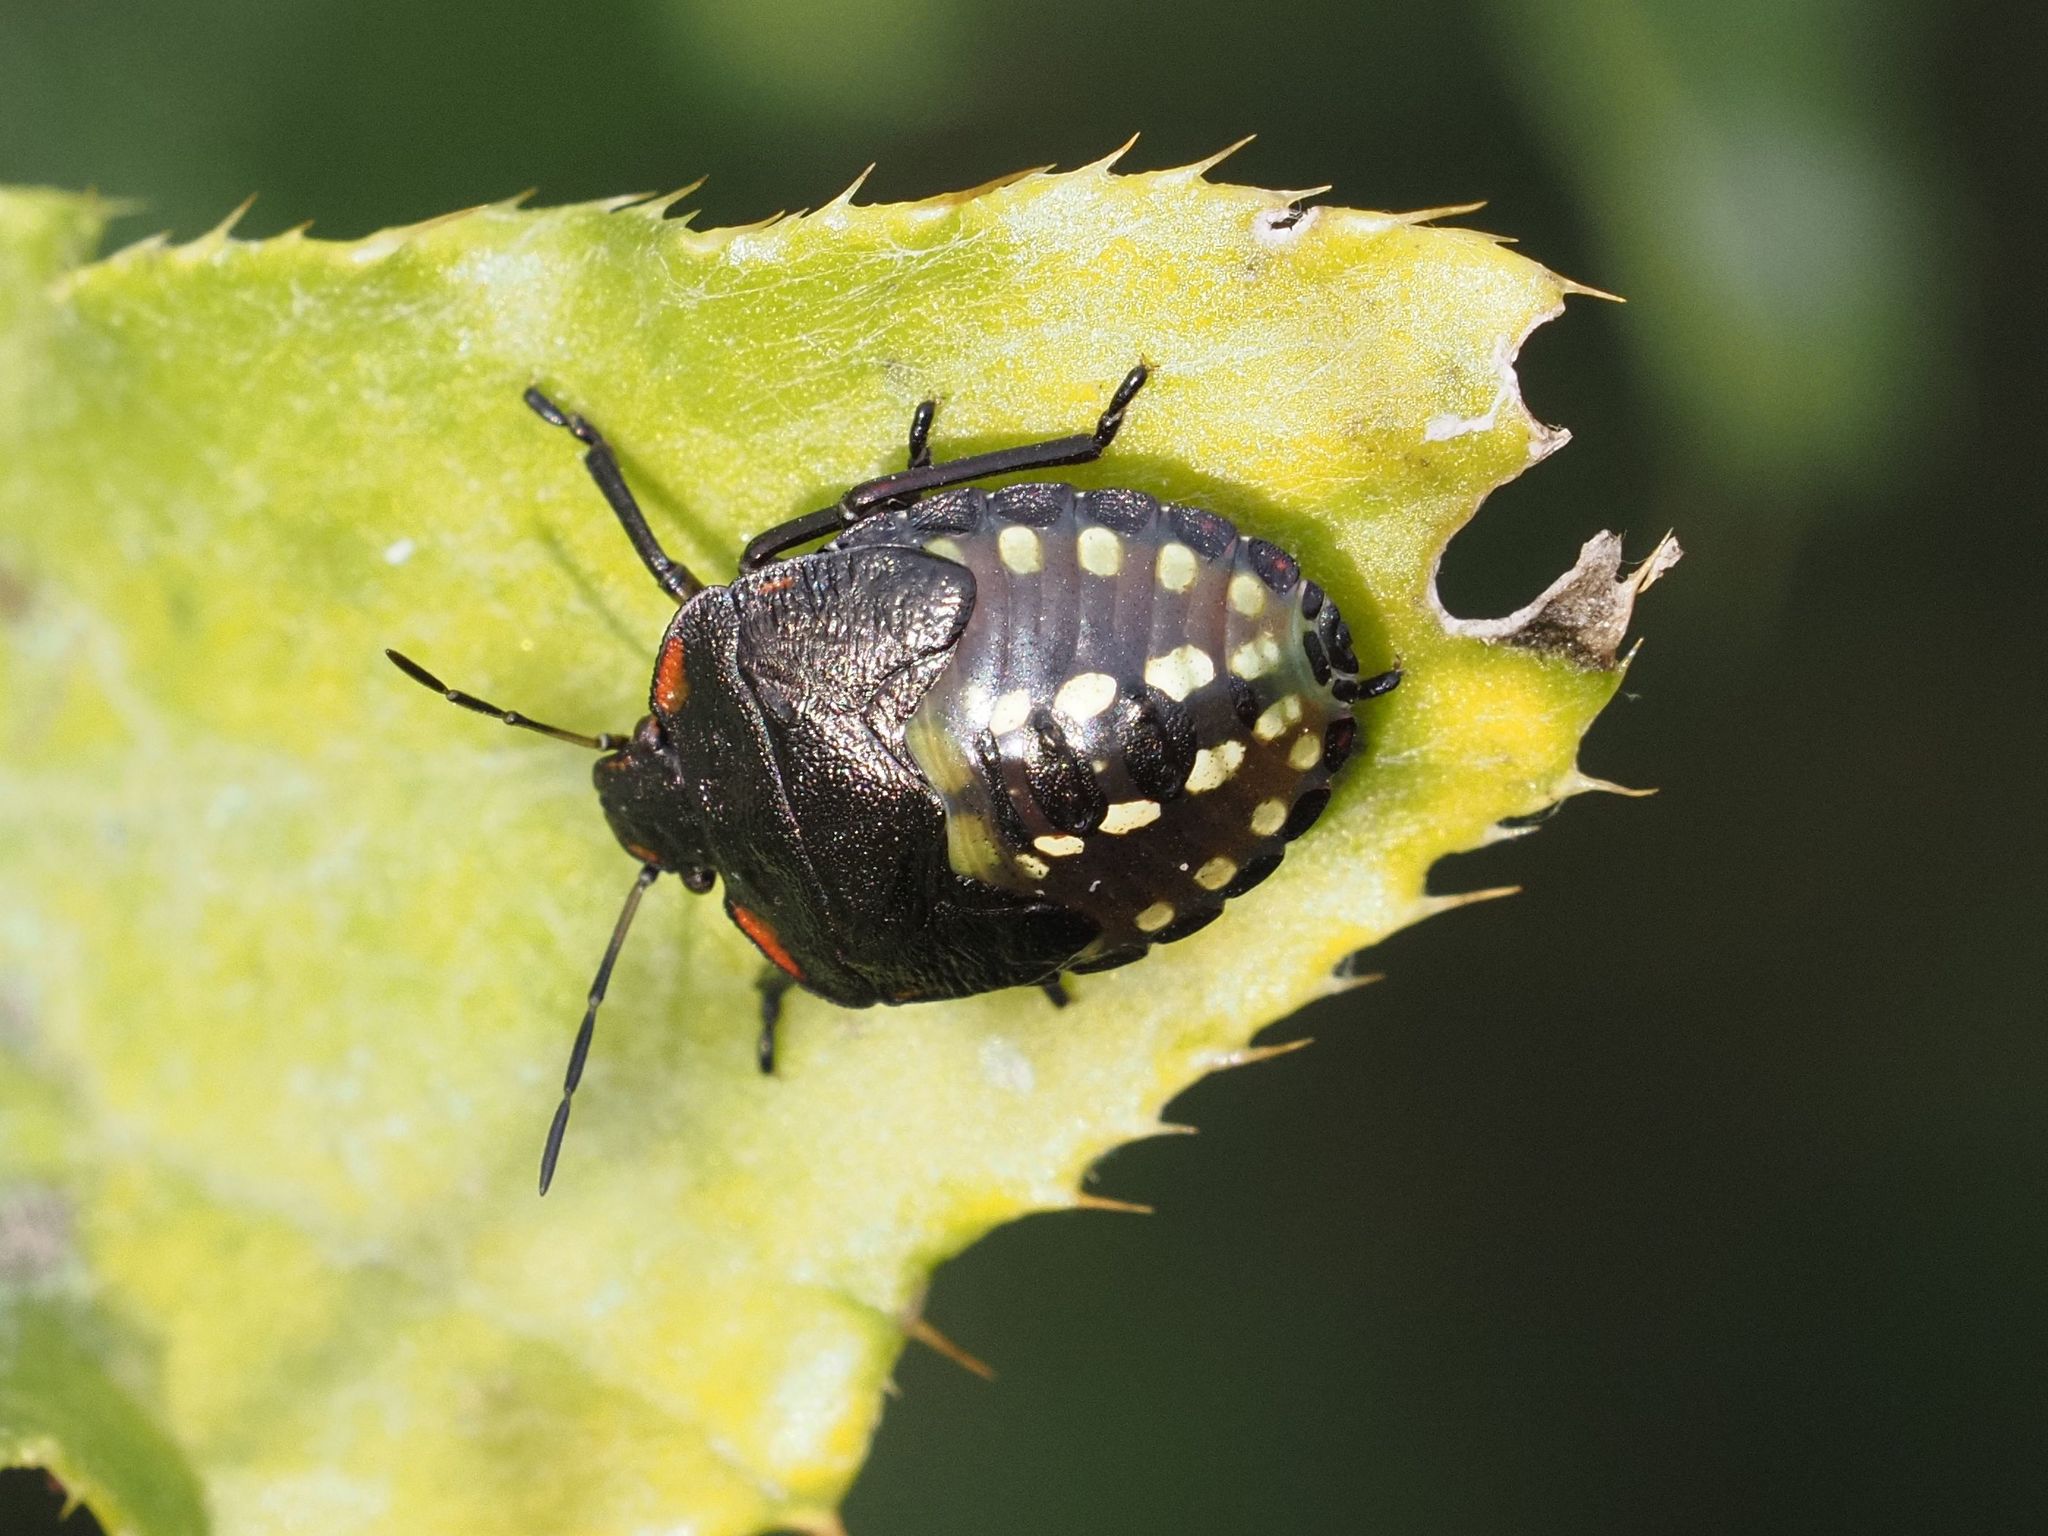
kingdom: Animalia
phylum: Arthropoda
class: Insecta
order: Hemiptera
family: Pentatomidae
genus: Nezara
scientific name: Nezara viridula
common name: Southern green stink bug
